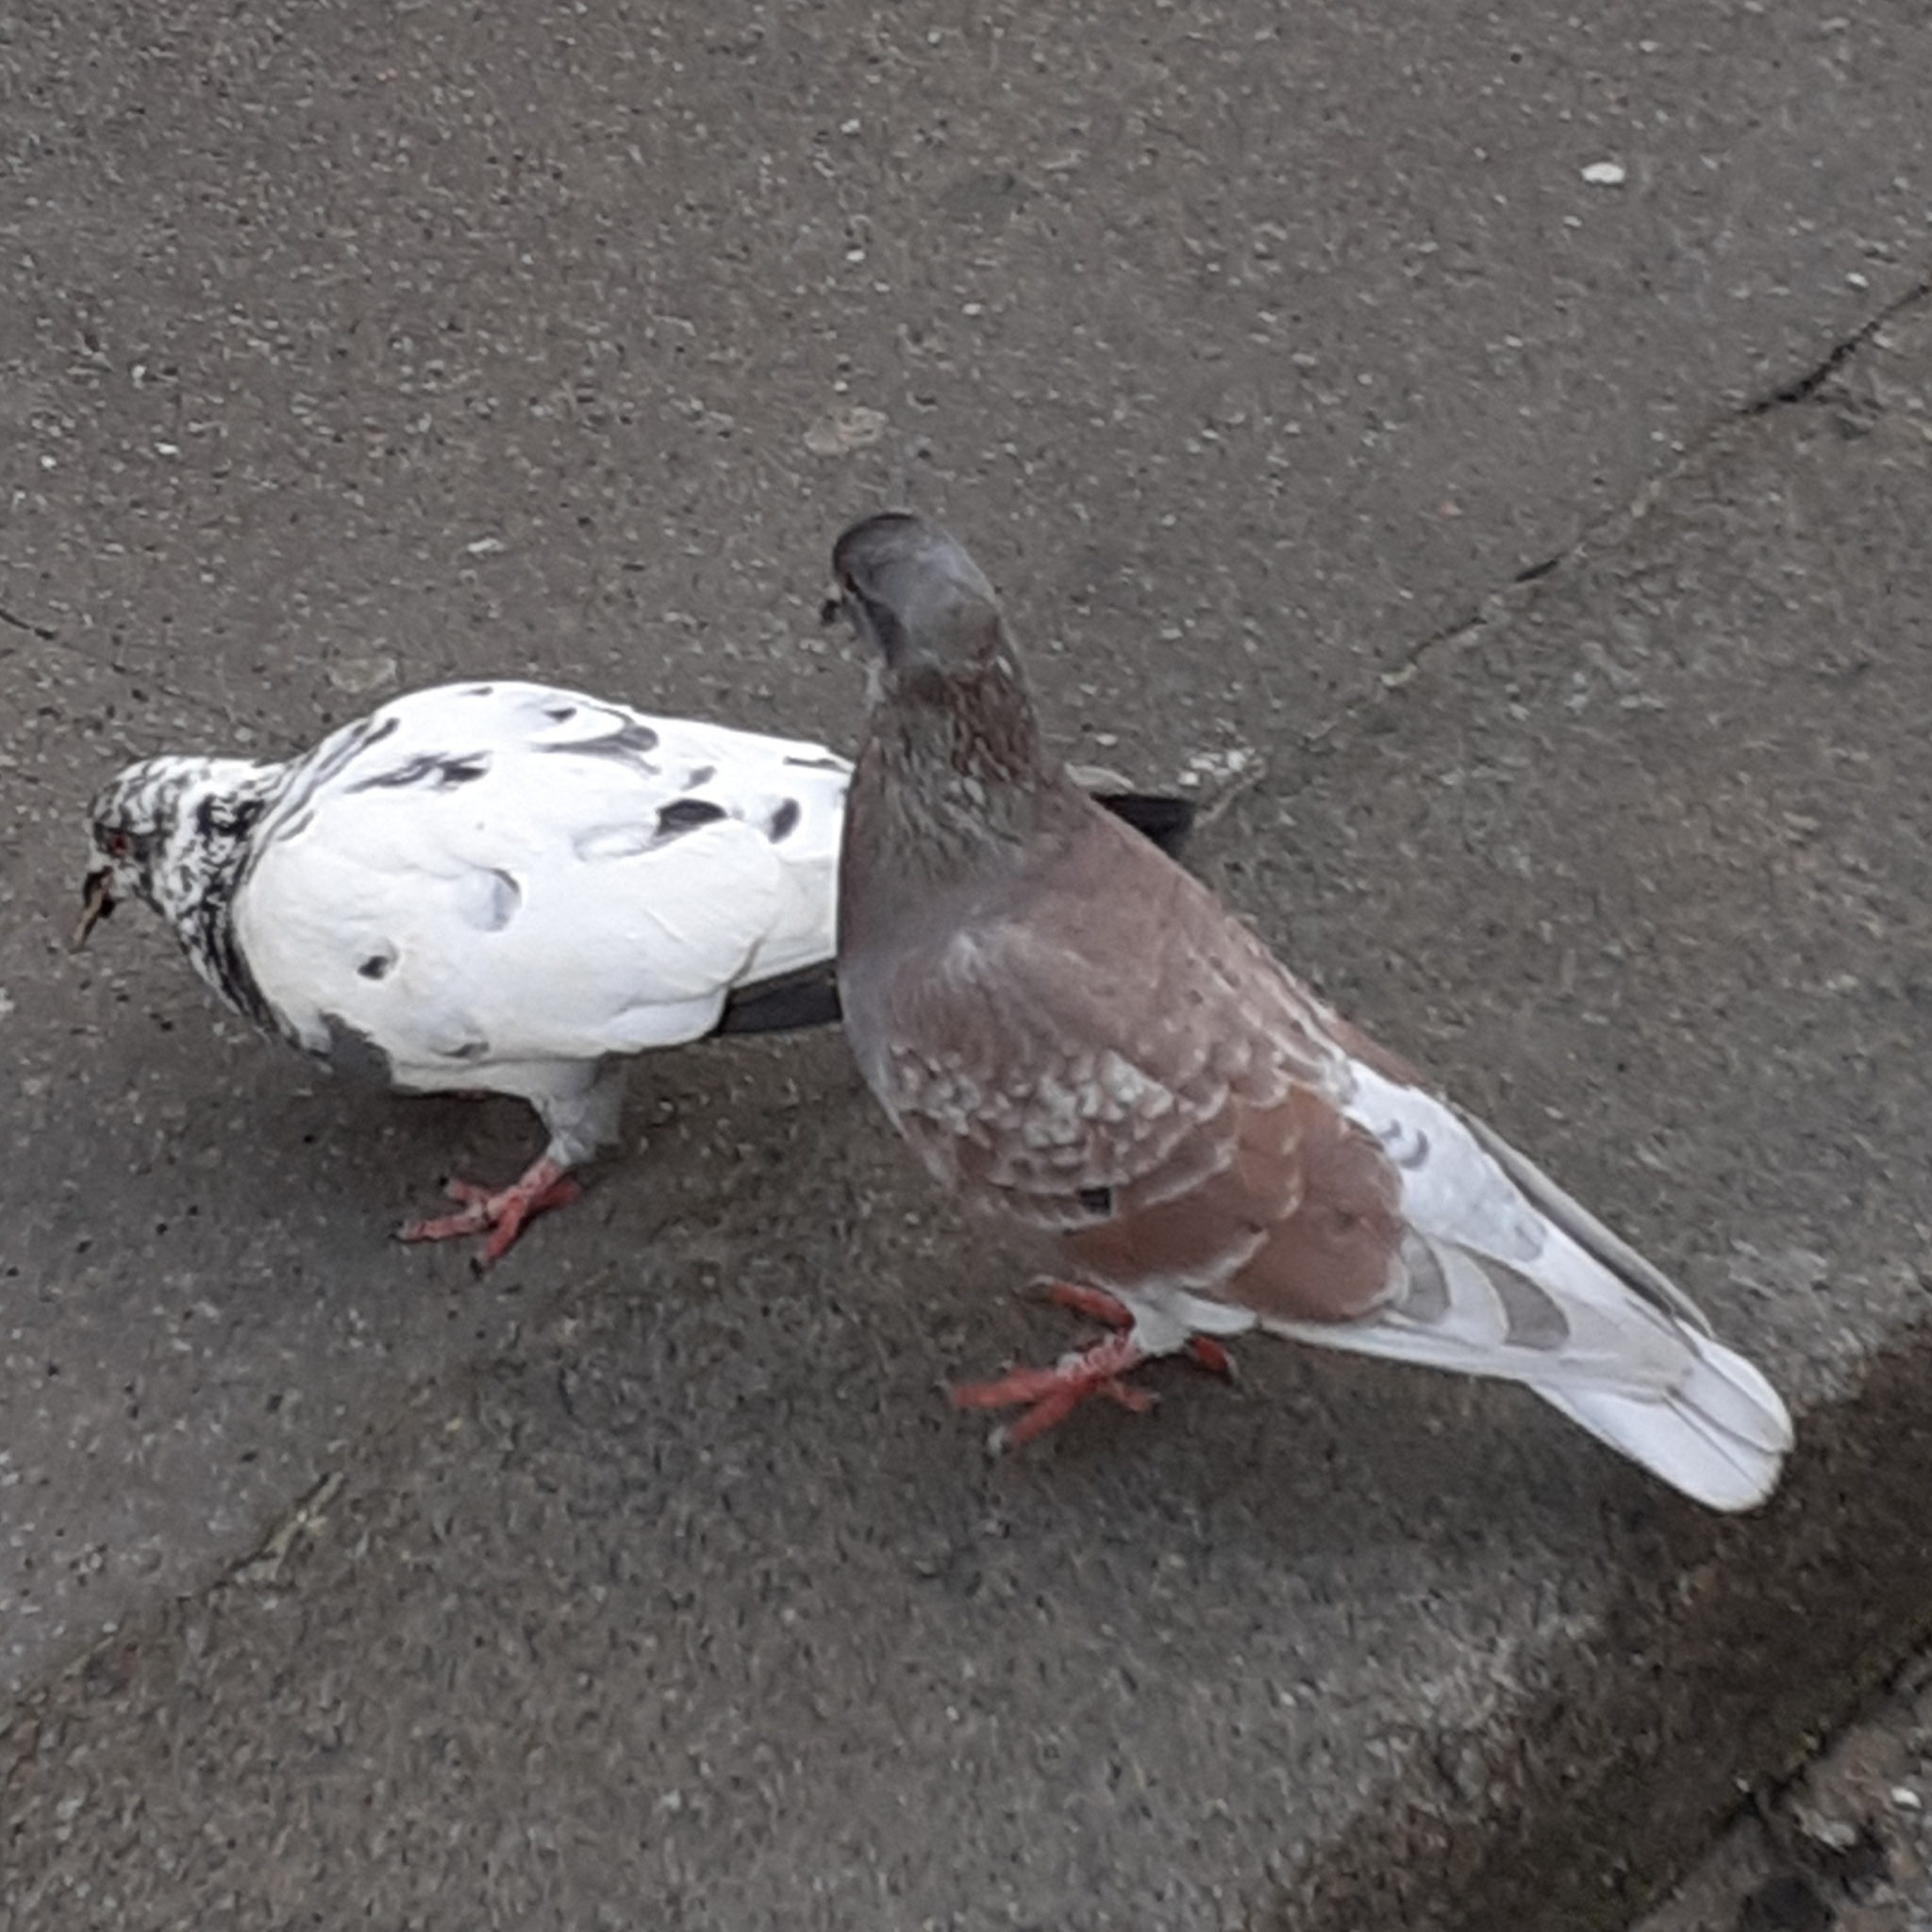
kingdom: Animalia
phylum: Chordata
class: Aves
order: Columbiformes
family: Columbidae
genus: Columba
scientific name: Columba livia
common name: Rock pigeon
